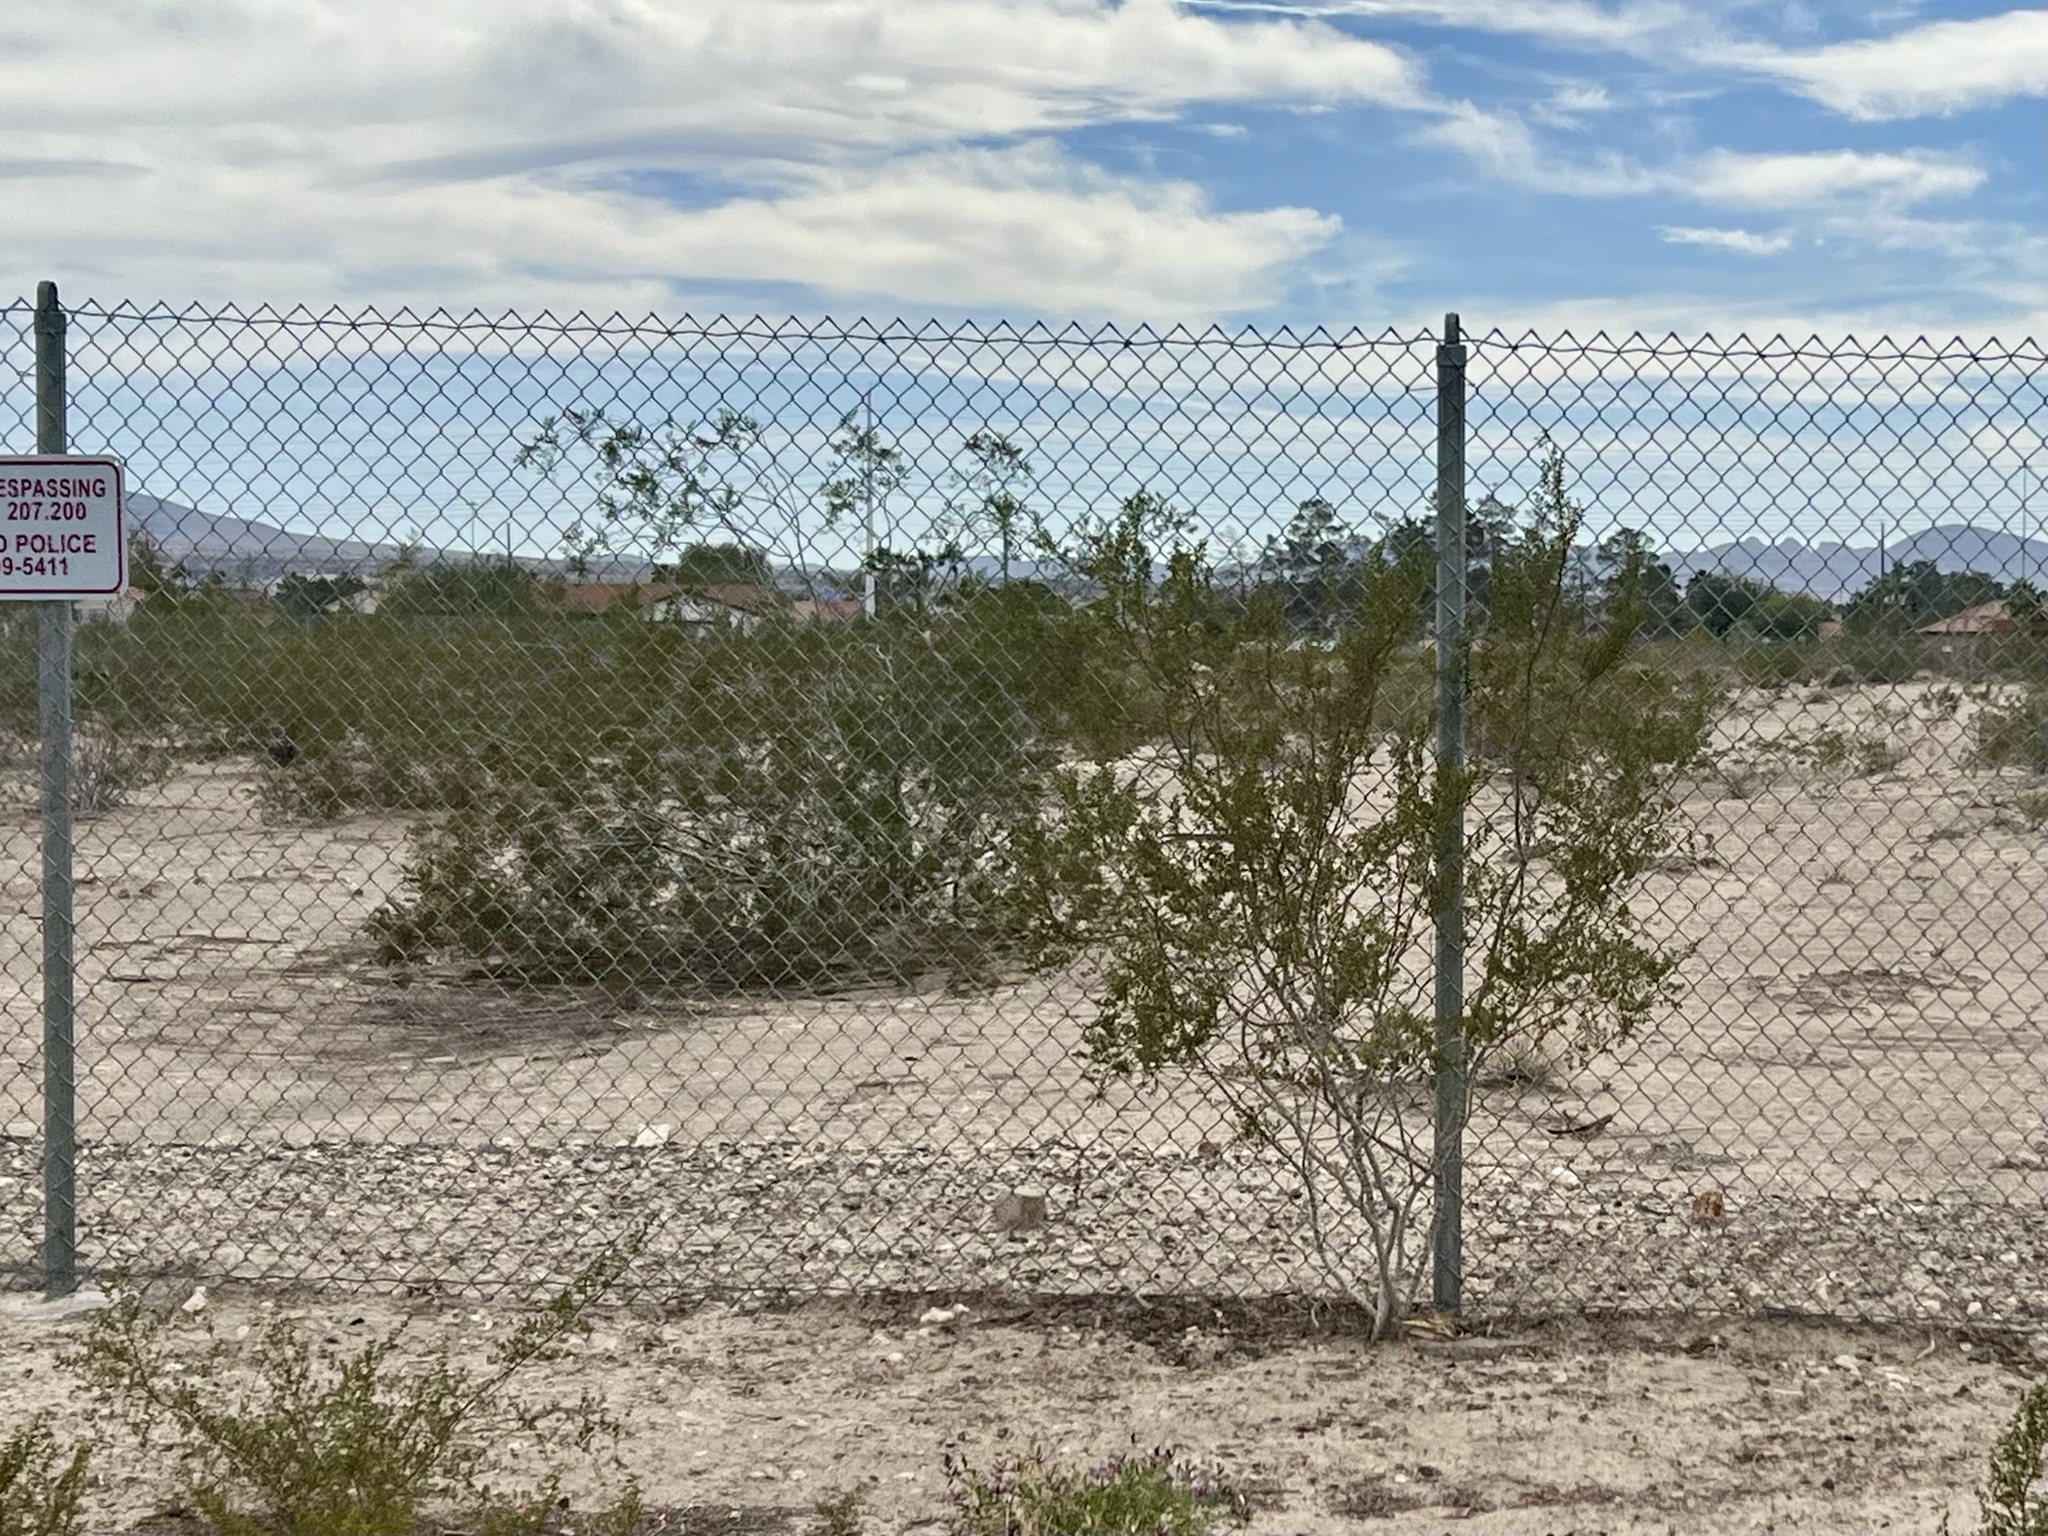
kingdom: Plantae
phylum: Tracheophyta
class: Magnoliopsida
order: Zygophyllales
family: Zygophyllaceae
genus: Larrea
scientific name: Larrea tridentata
